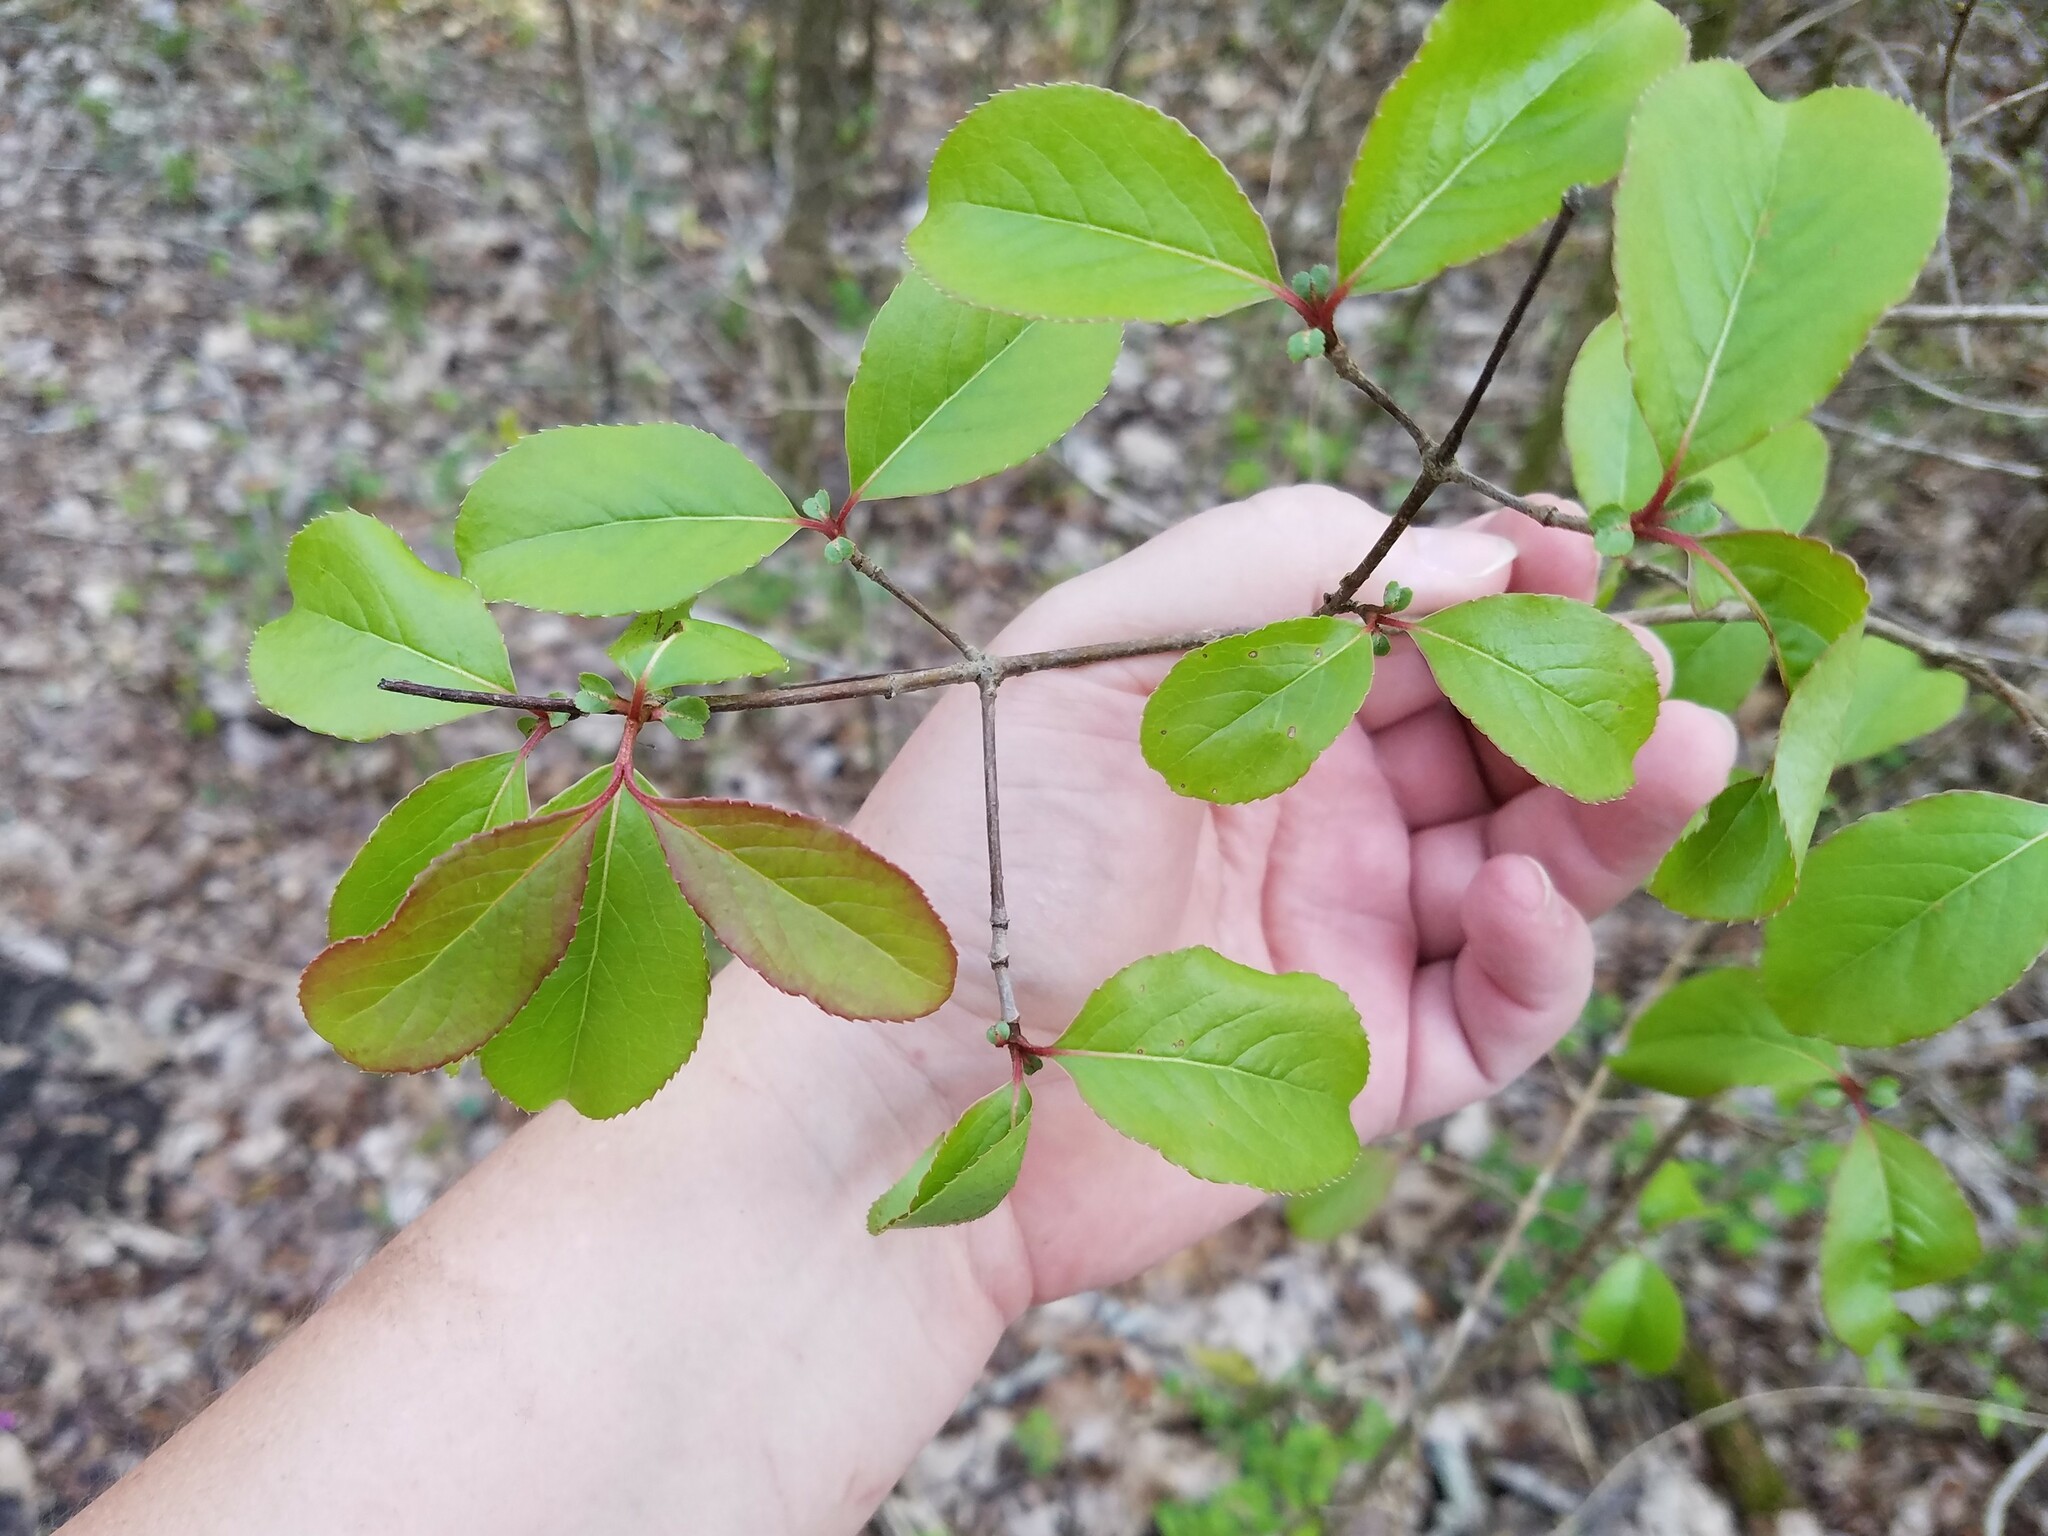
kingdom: Plantae
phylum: Tracheophyta
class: Magnoliopsida
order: Dipsacales
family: Viburnaceae
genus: Viburnum
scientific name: Viburnum rufidulum
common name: Blue haw
